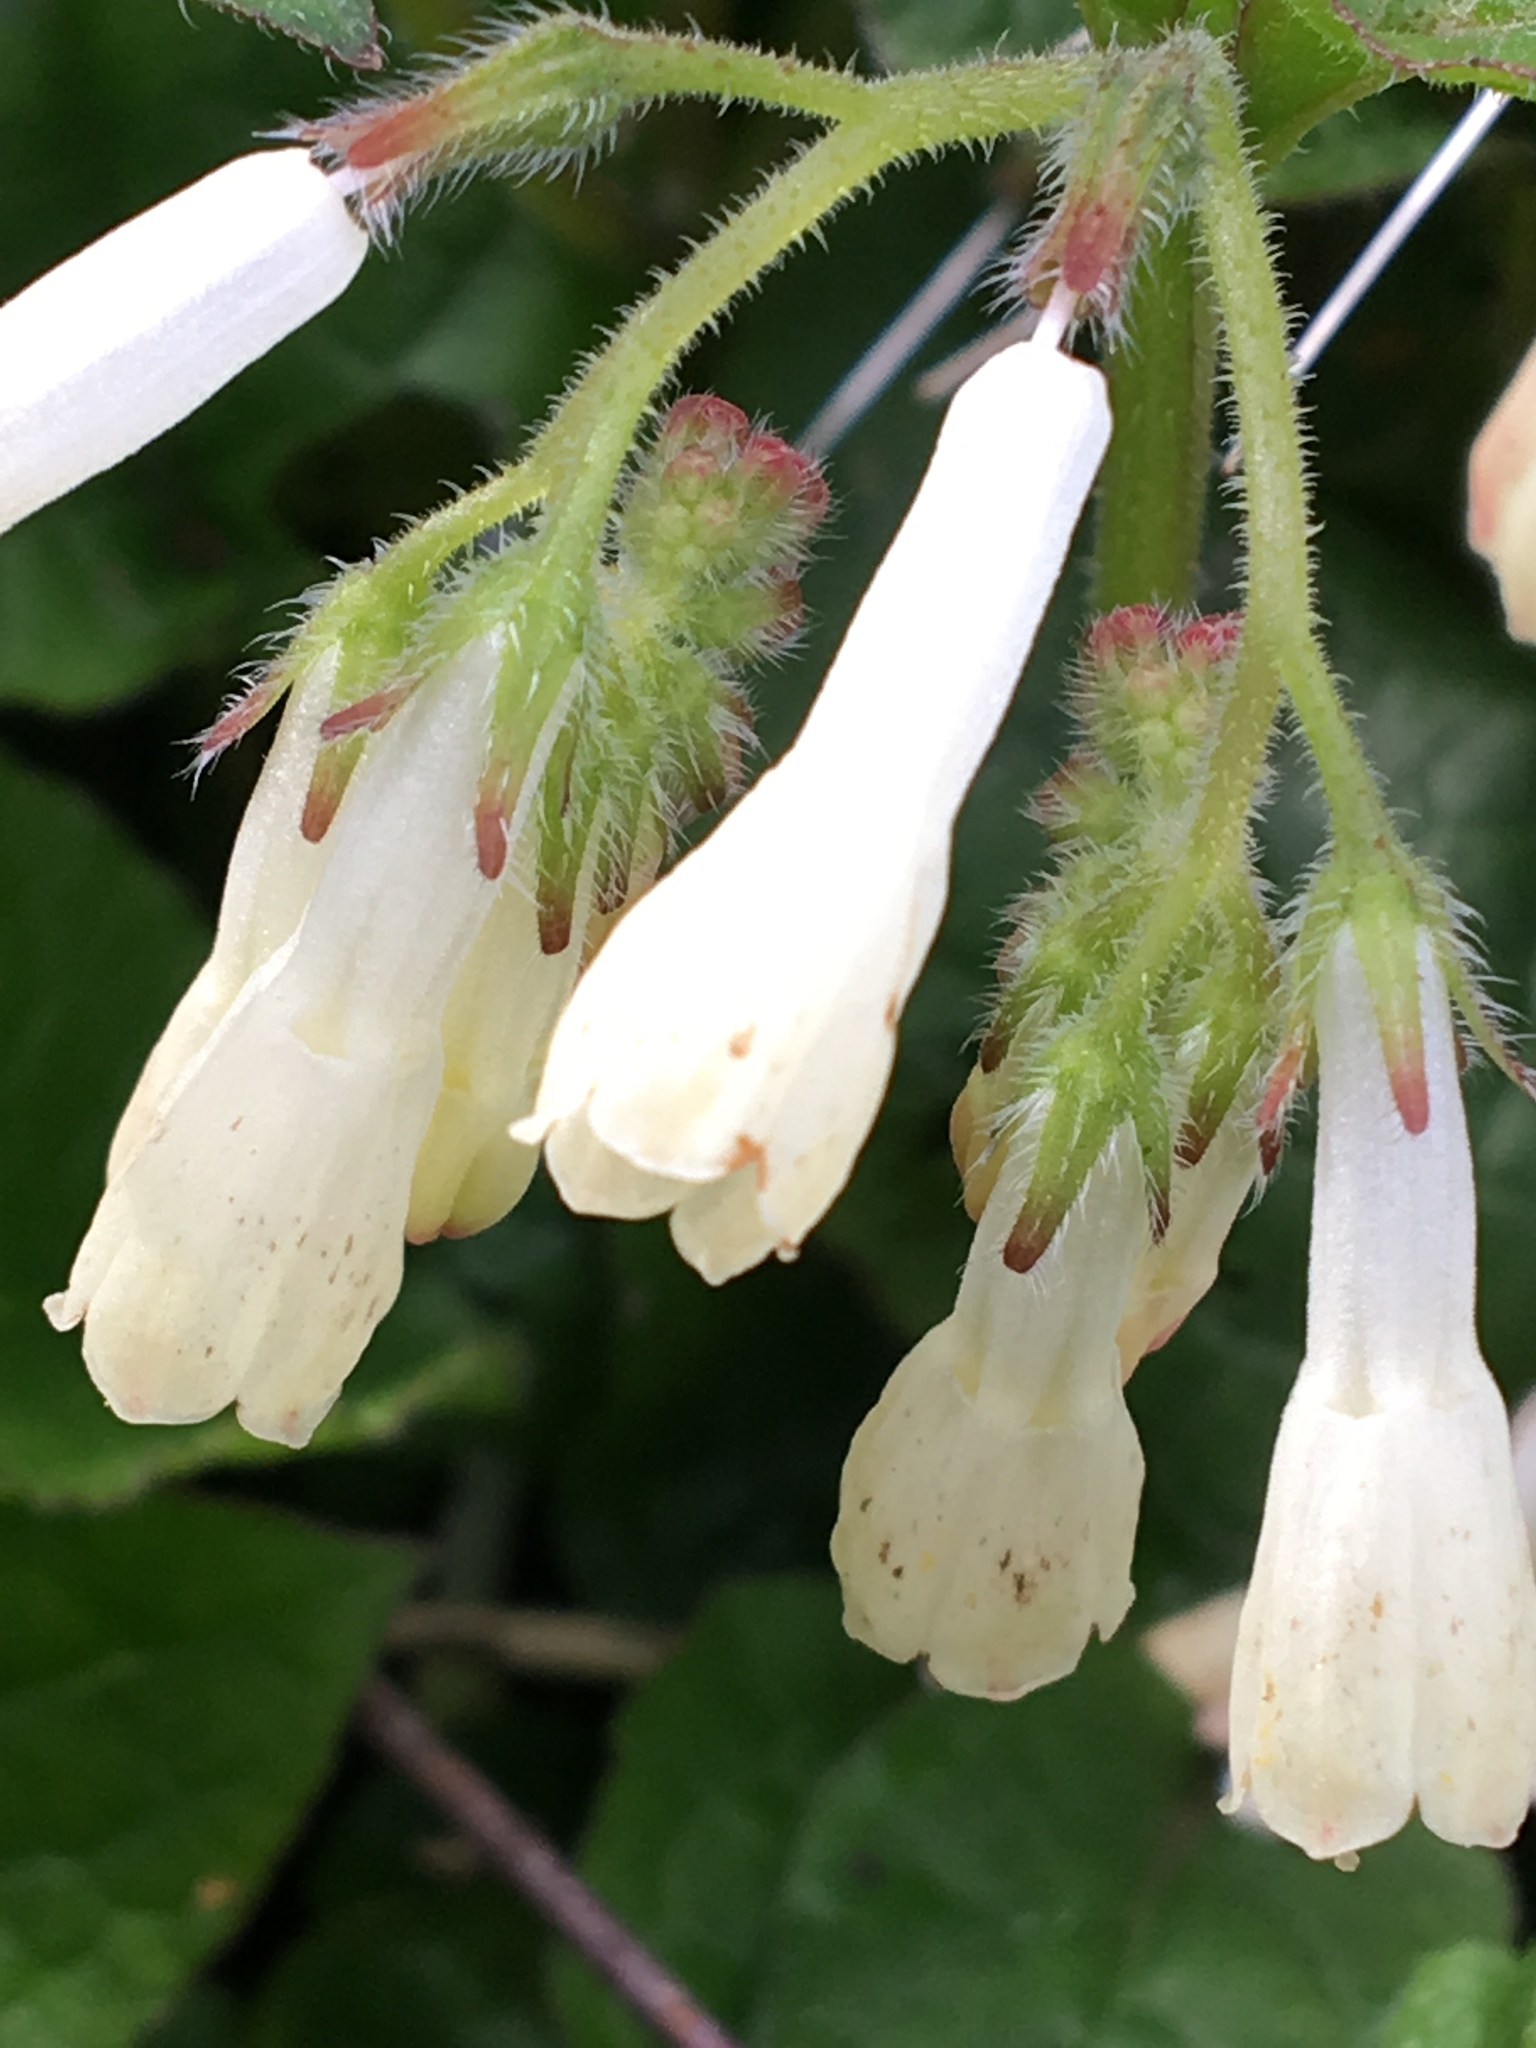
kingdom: Plantae
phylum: Tracheophyta
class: Magnoliopsida
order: Boraginales
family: Boraginaceae
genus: Symphytum
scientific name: Symphytum grandiflorum
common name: Creeping comfrey
